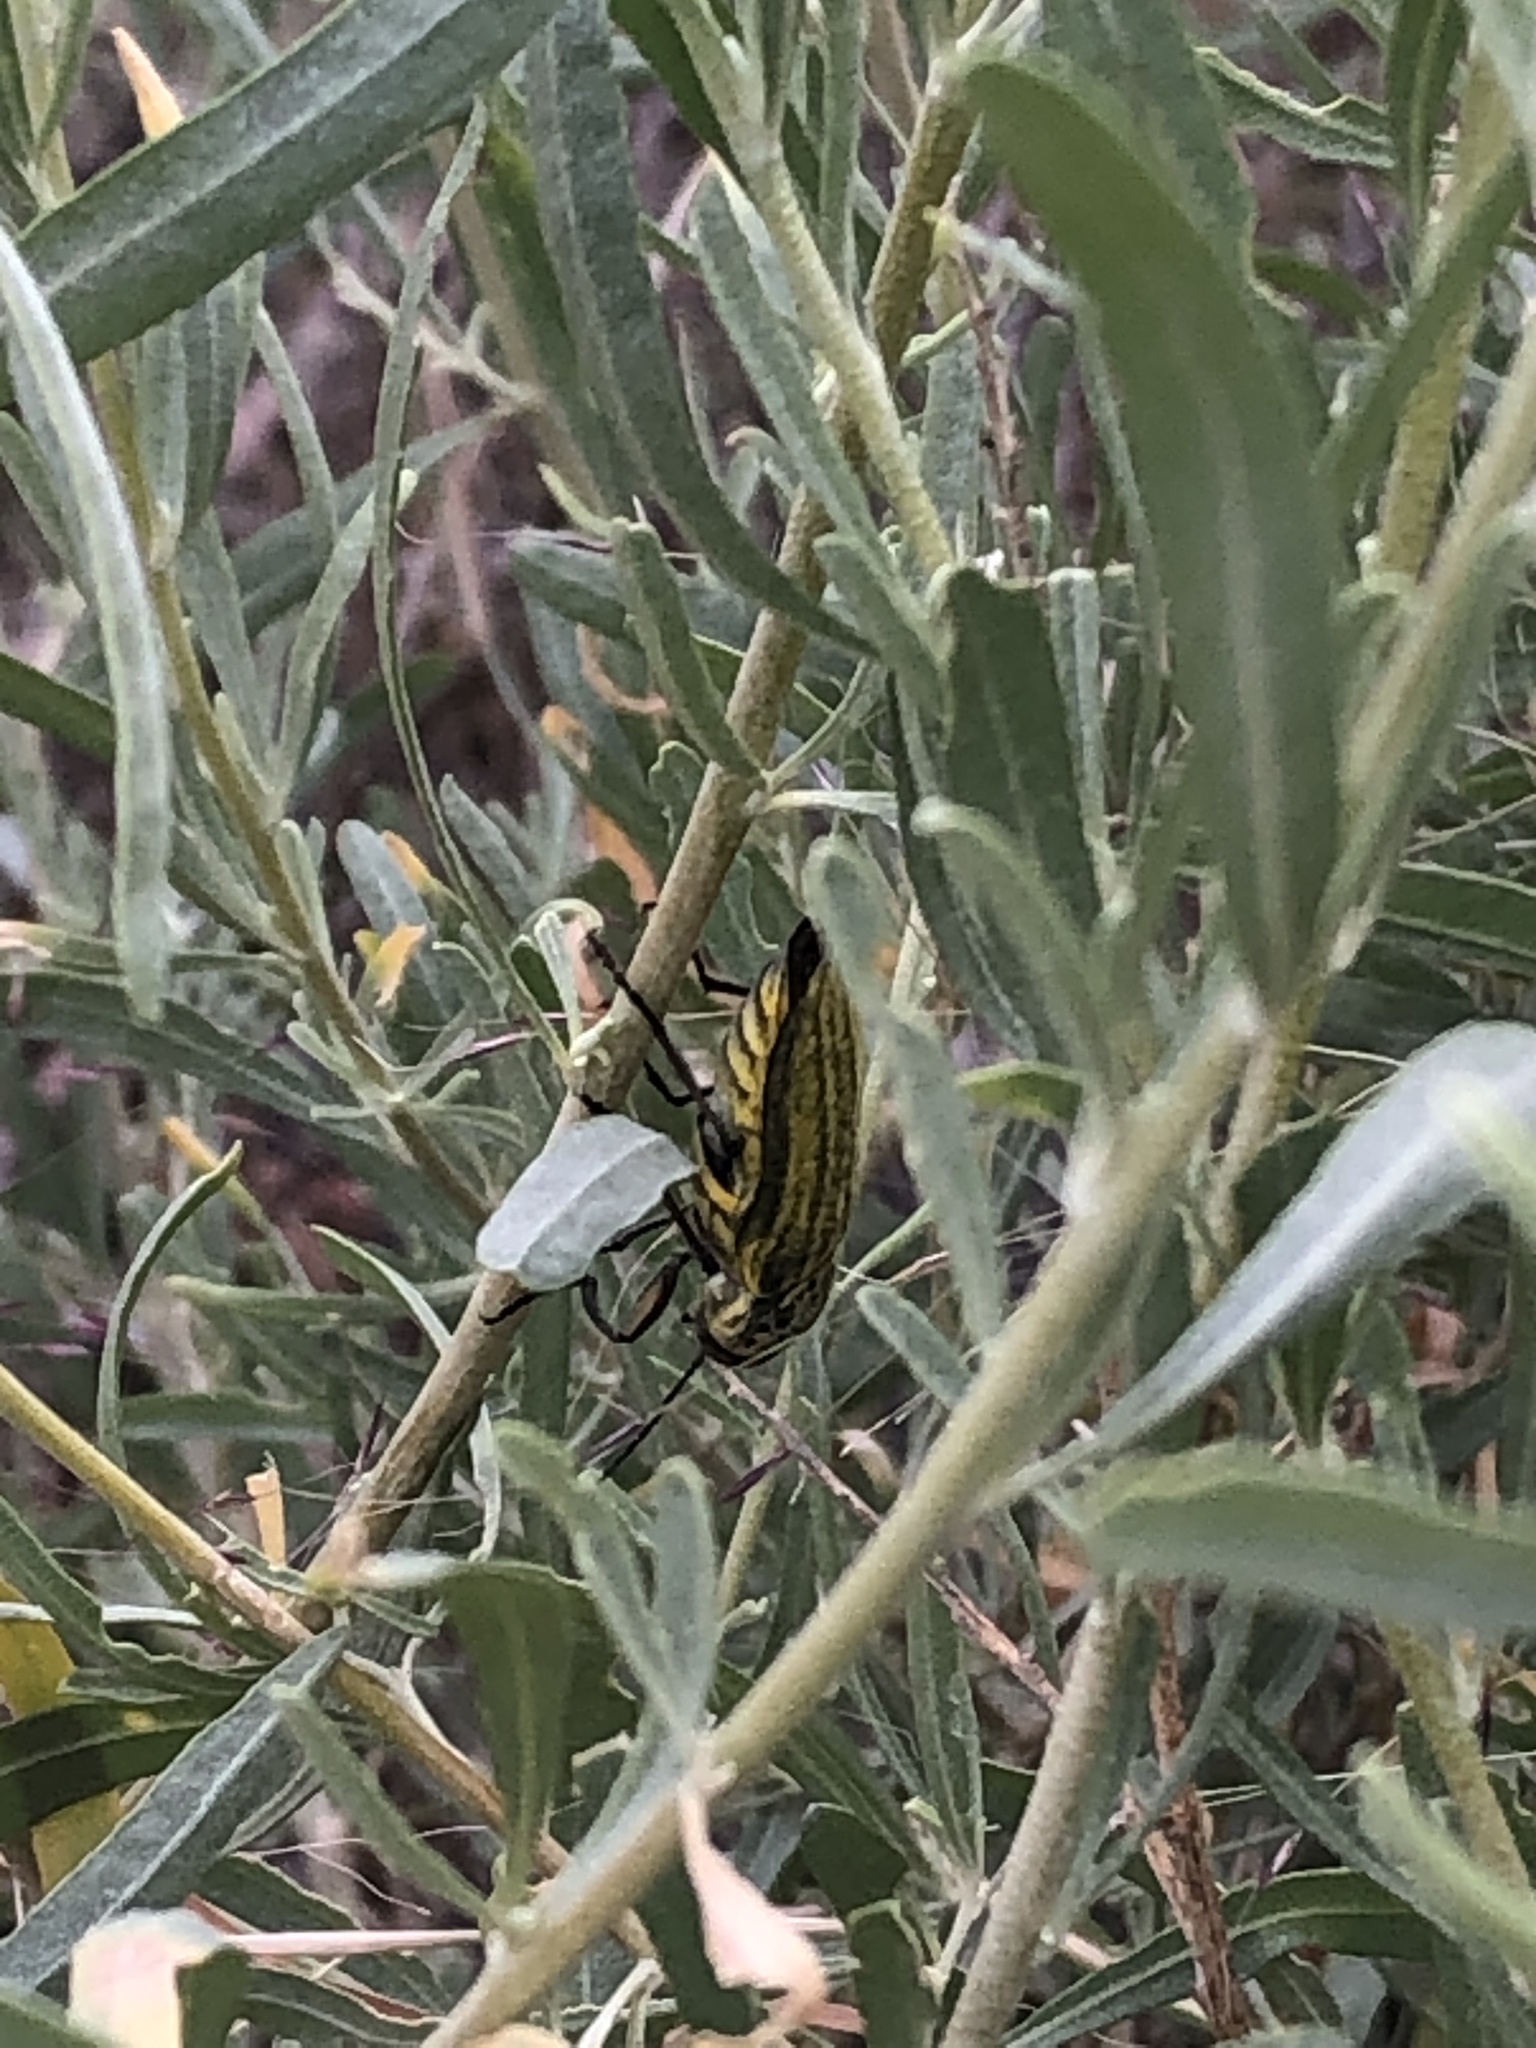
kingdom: Animalia
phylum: Arthropoda
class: Insecta
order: Coleoptera
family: Buprestidae
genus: Gyascutus
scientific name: Gyascutus planicosta
